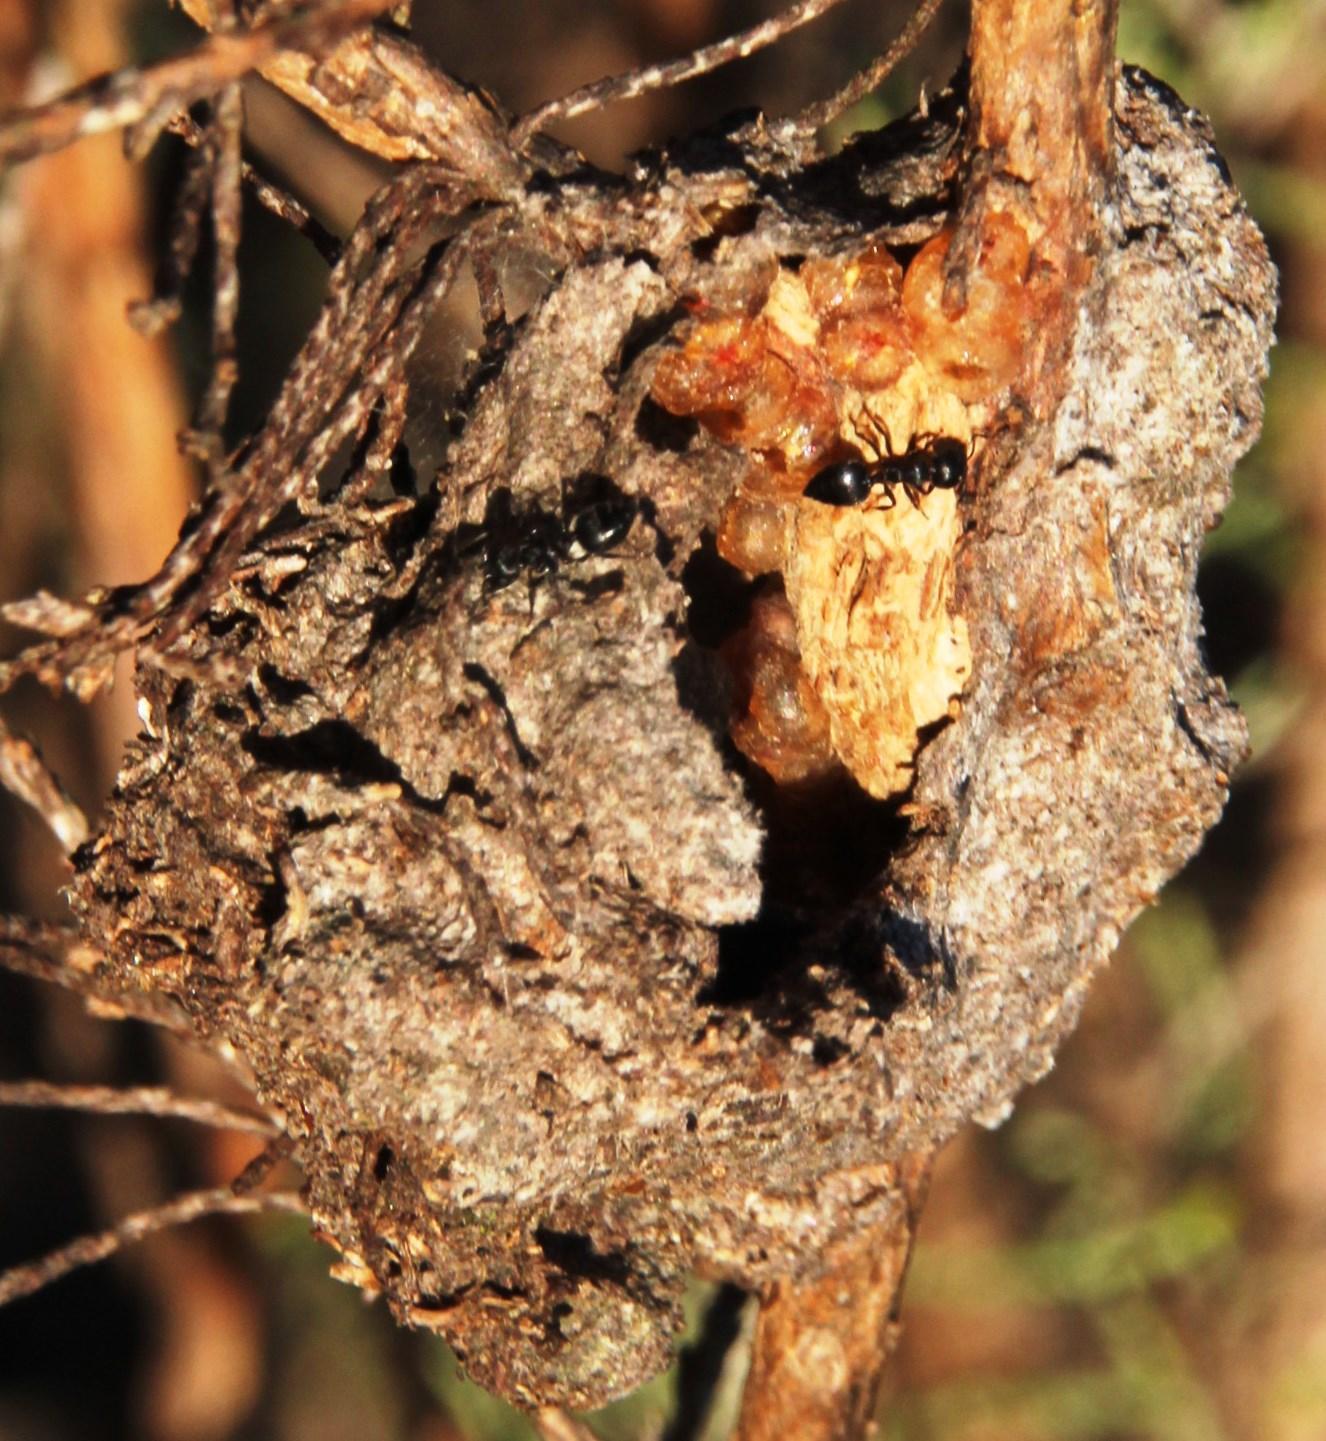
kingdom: Animalia
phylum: Arthropoda
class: Insecta
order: Hymenoptera
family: Formicidae
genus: Crematogaster
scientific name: Crematogaster peringueyi
